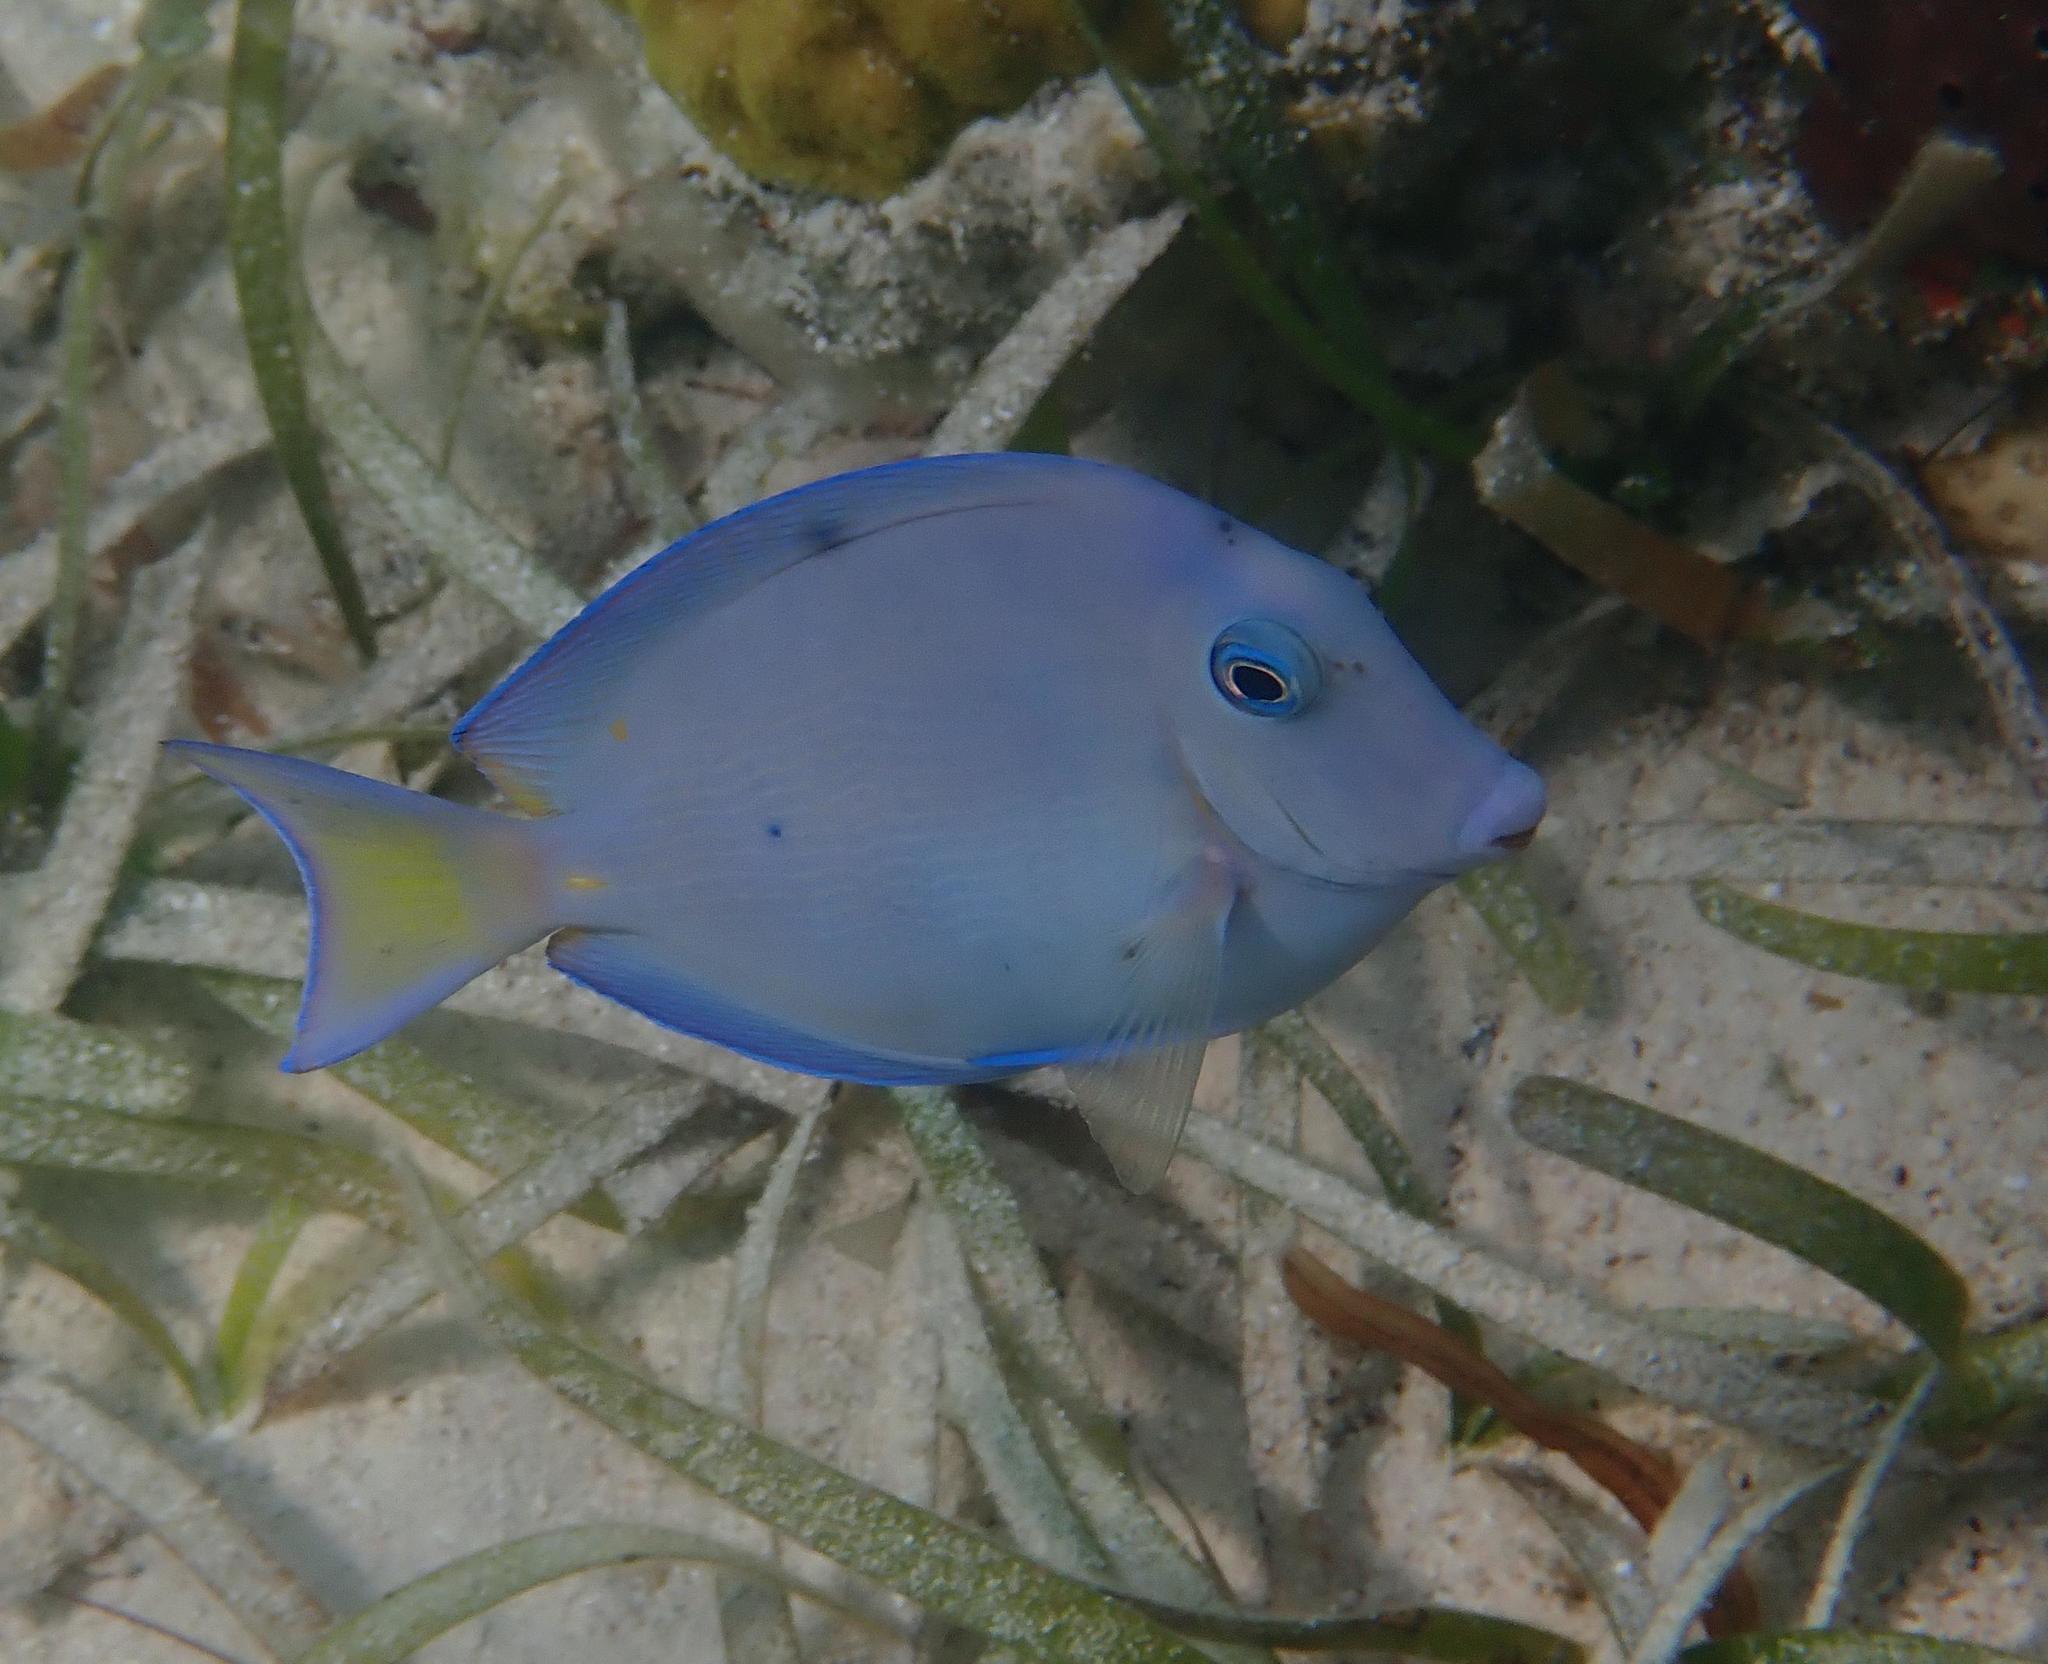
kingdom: Animalia
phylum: Chordata
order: Perciformes
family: Acanthuridae
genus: Acanthurus
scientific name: Acanthurus coeruleus
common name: Blue tang
